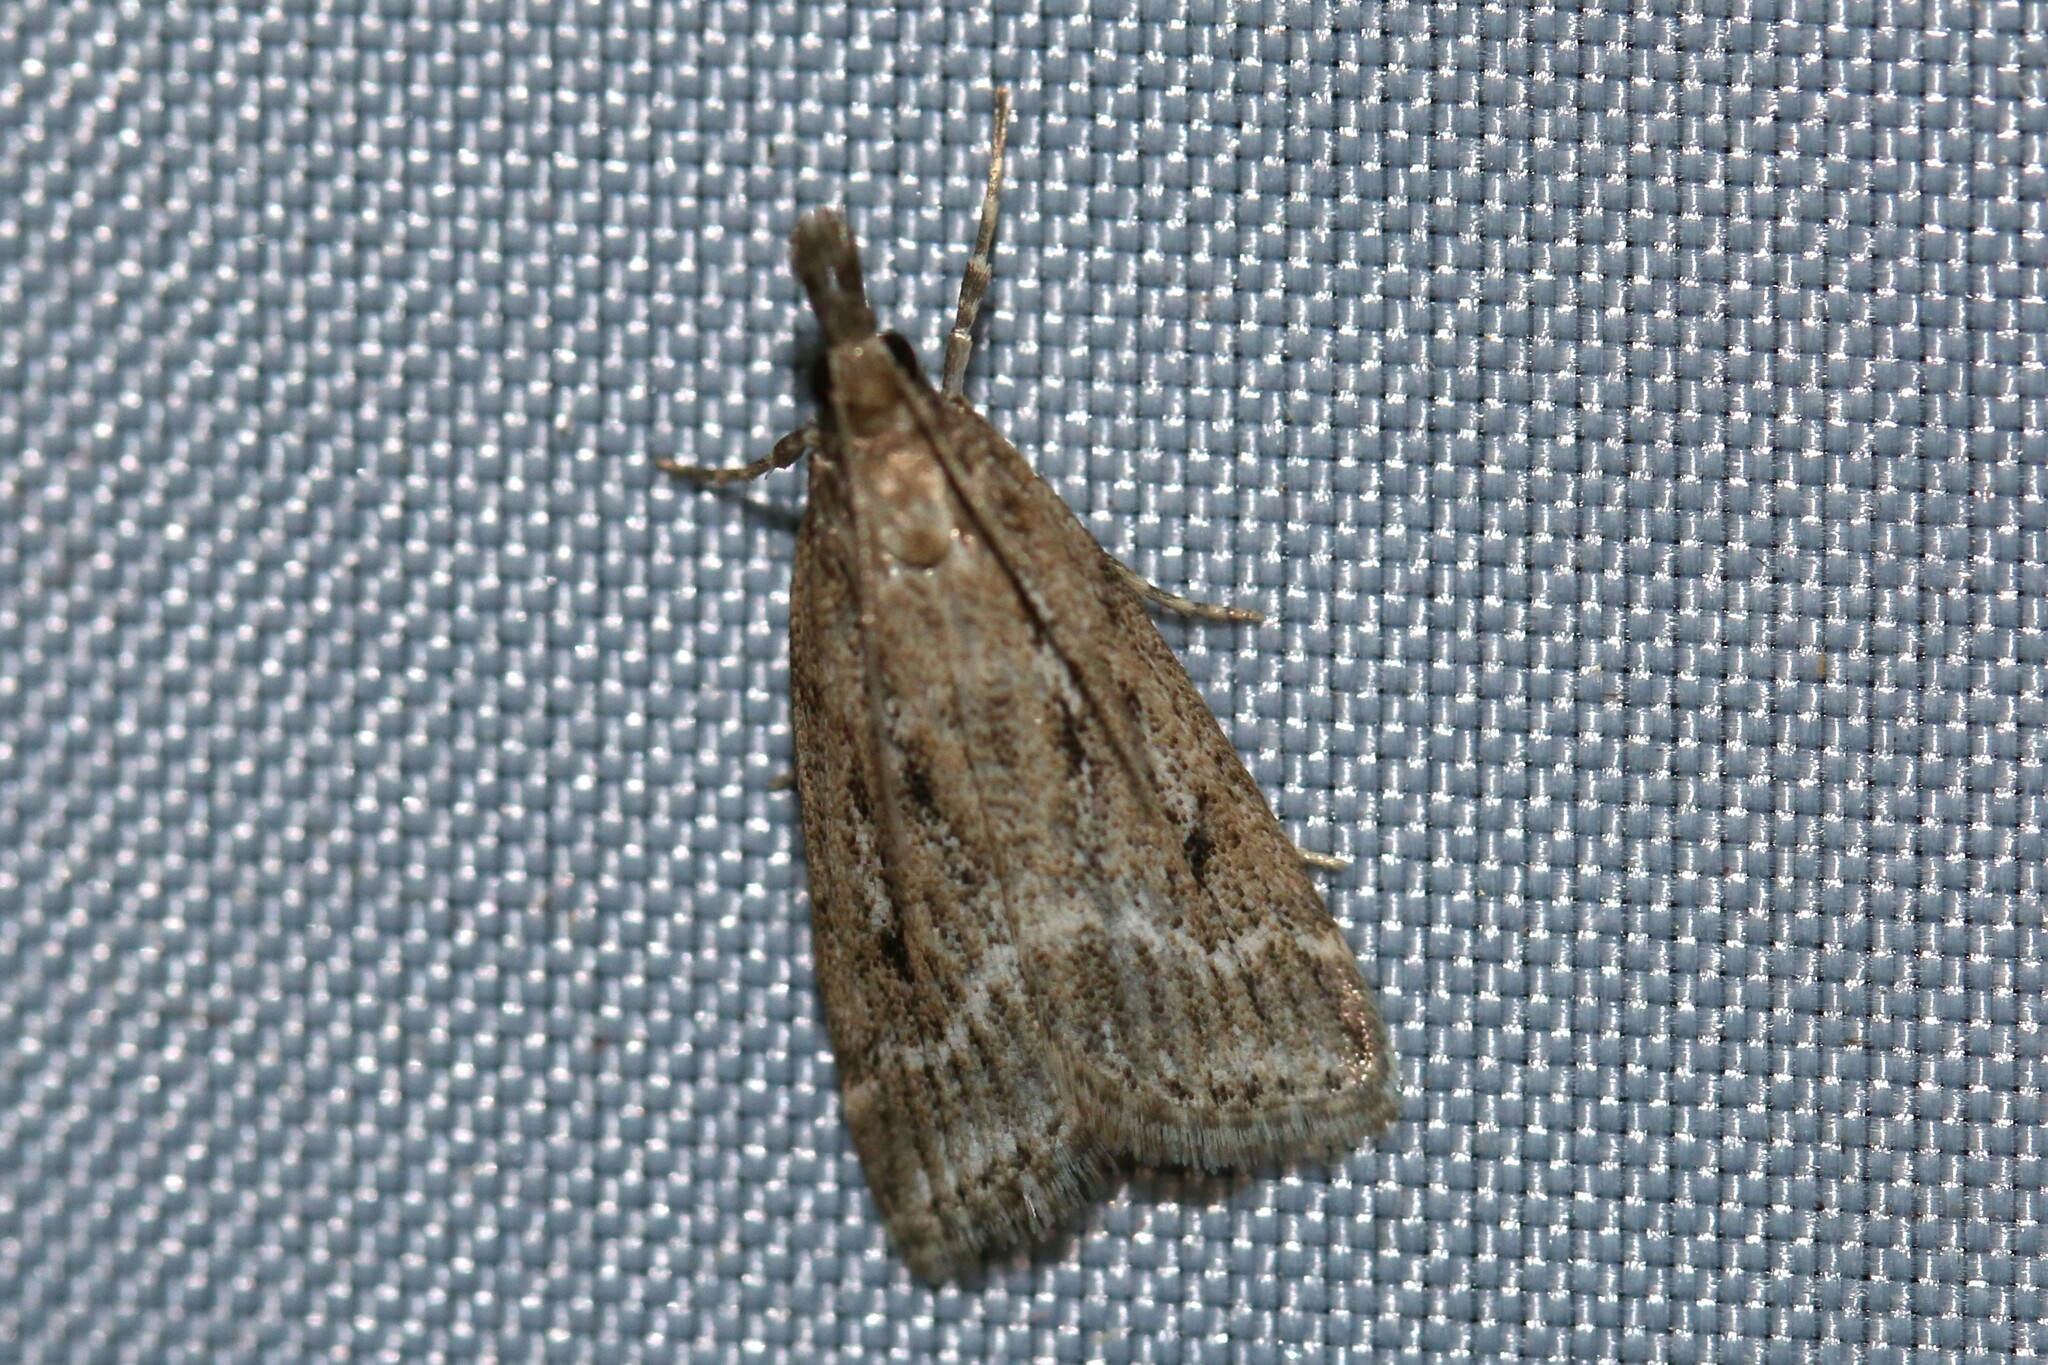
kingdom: Animalia
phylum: Arthropoda
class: Insecta
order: Lepidoptera
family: Crambidae
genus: Eudonia
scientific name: Eudonia truncicolella
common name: Ground-moss grey
